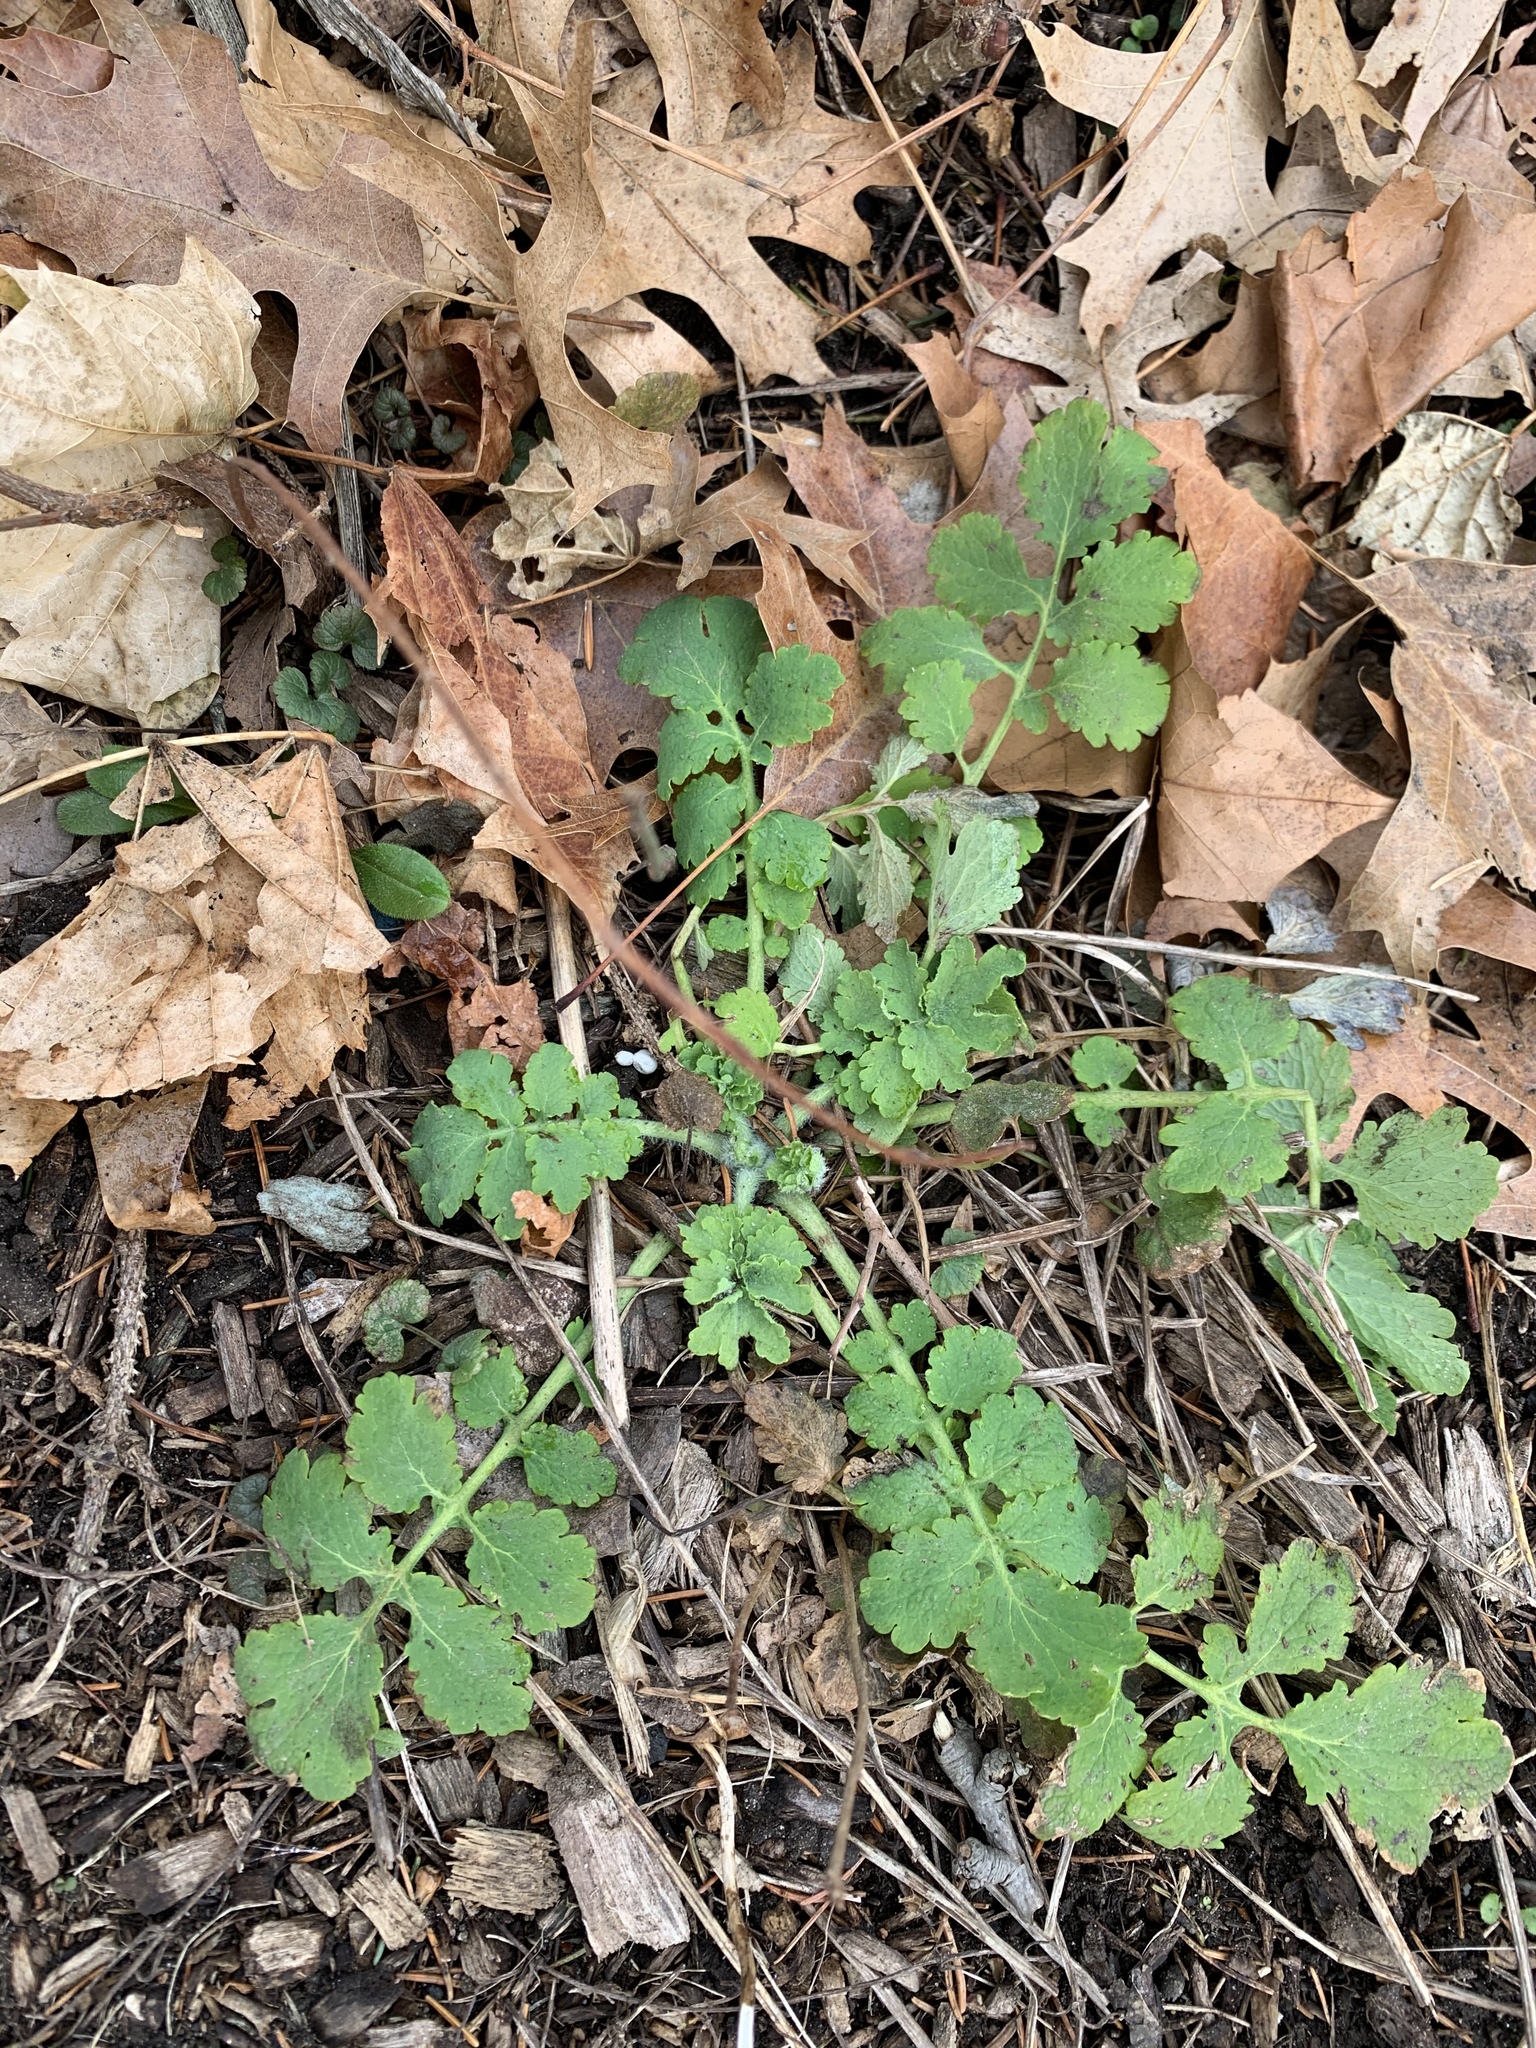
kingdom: Plantae
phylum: Tracheophyta
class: Magnoliopsida
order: Ranunculales
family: Papaveraceae
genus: Chelidonium
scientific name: Chelidonium majus
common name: Greater celandine
